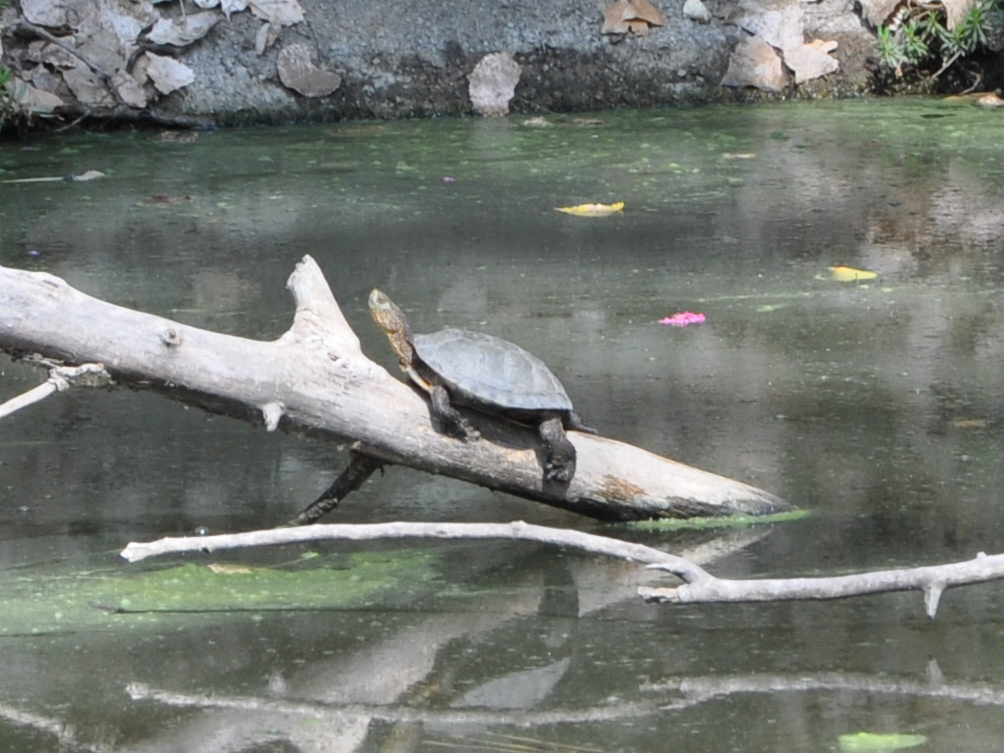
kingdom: Animalia
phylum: Chordata
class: Testudines
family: Emydidae
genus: Actinemys
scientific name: Actinemys marmorata
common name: Western pond turtle
